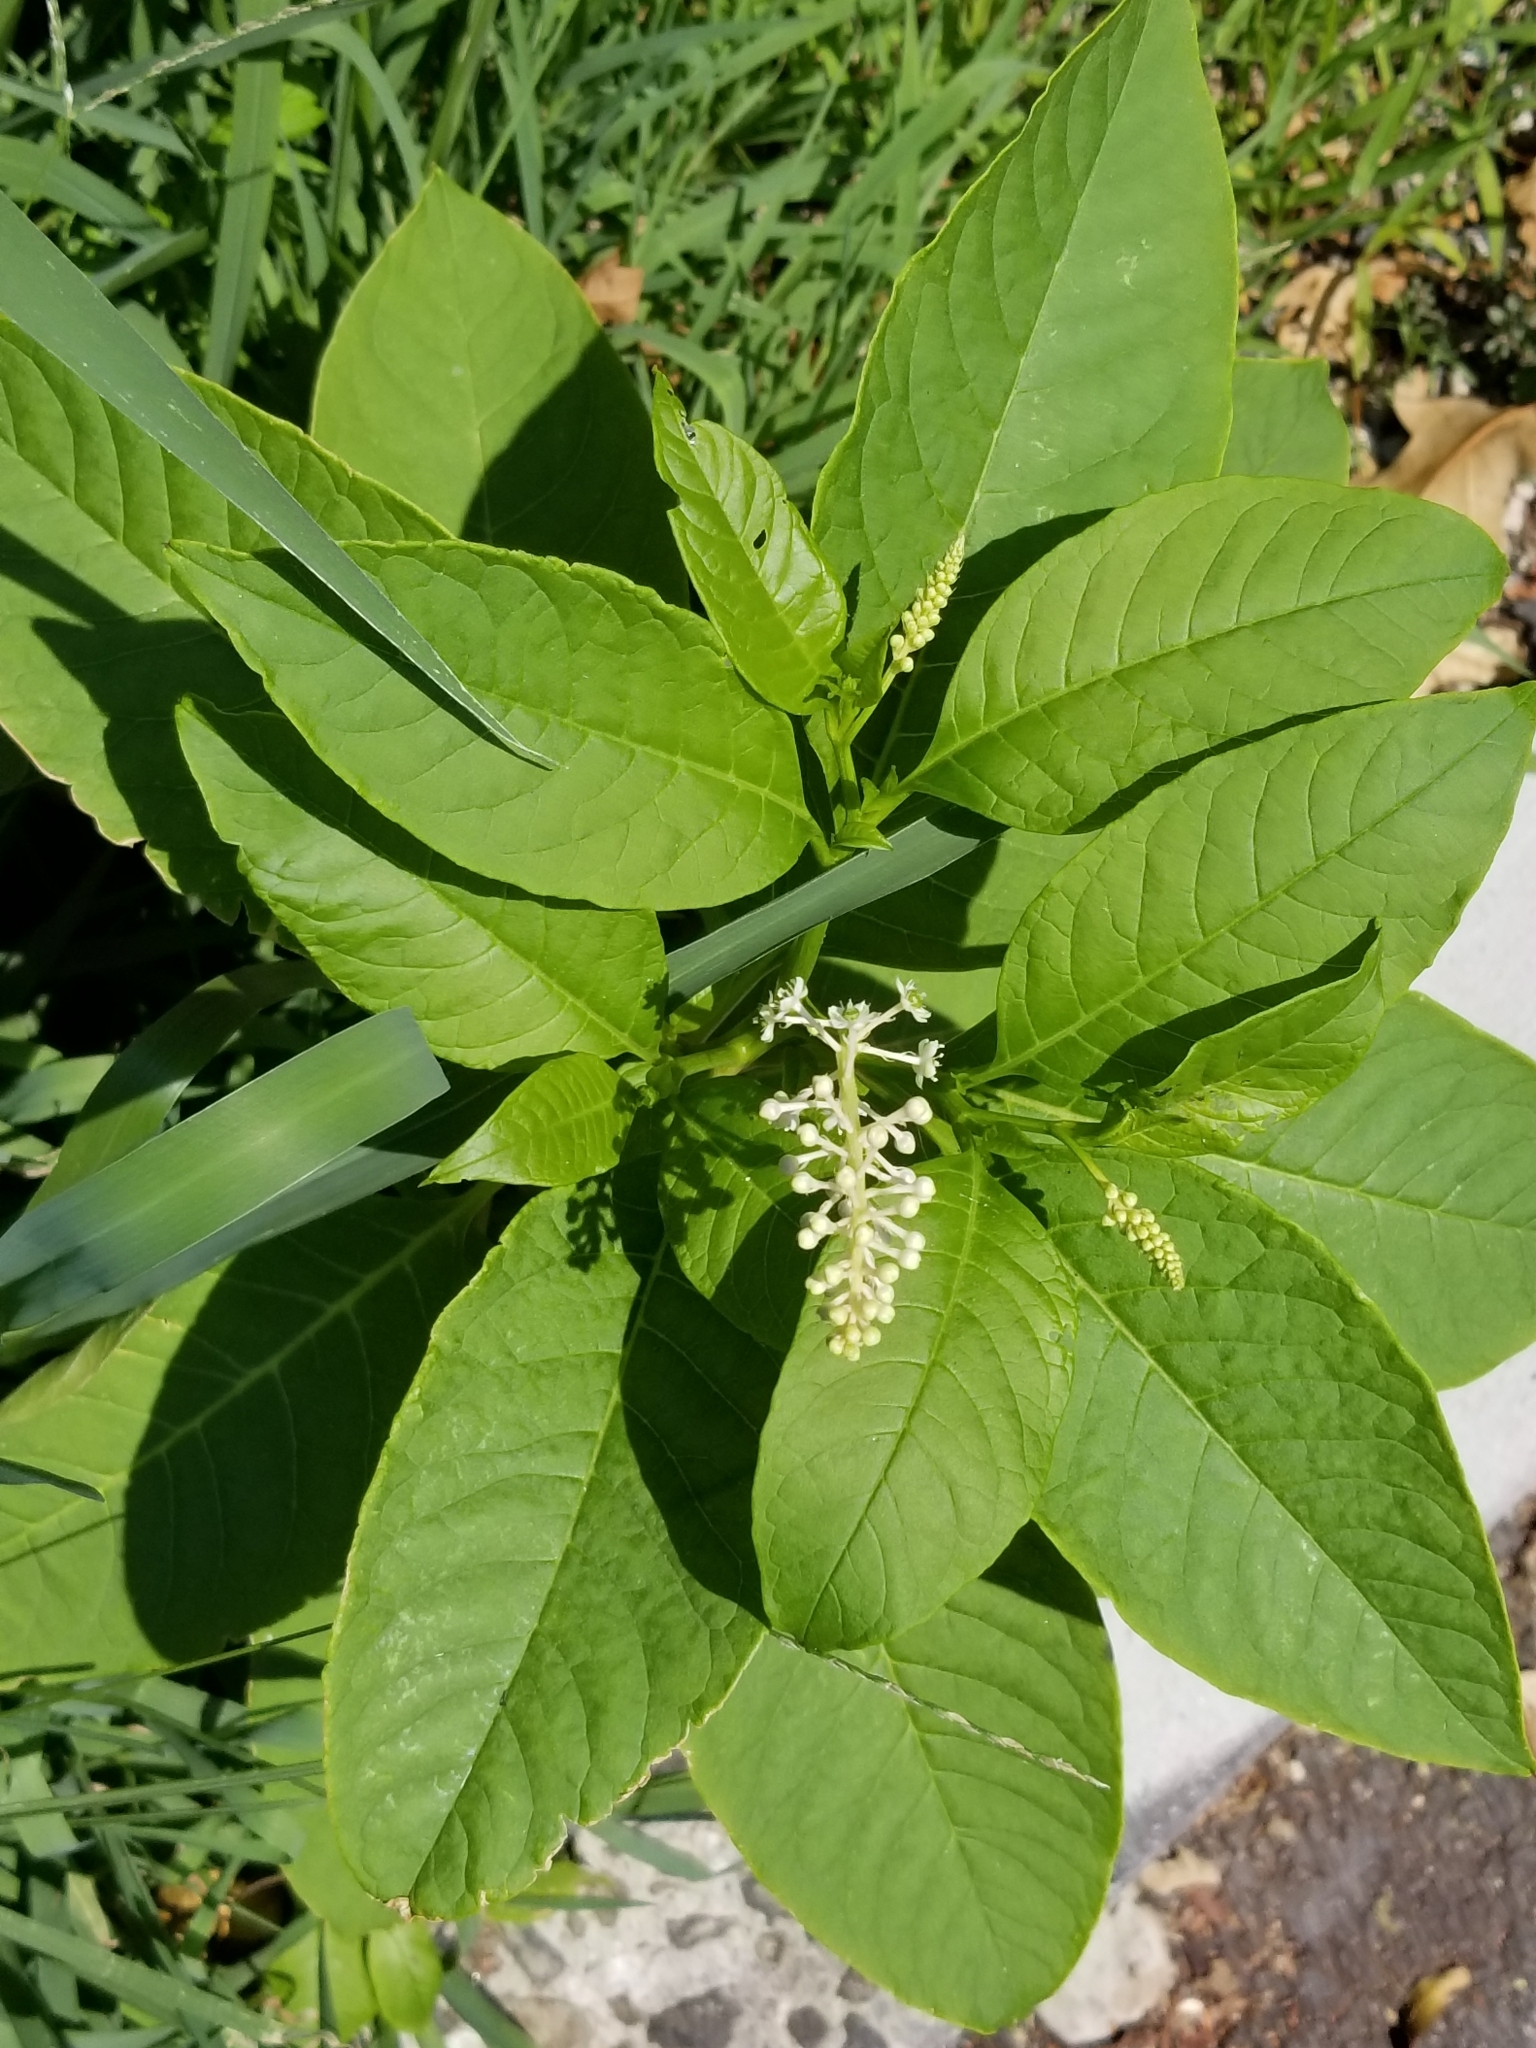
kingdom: Plantae
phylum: Tracheophyta
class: Magnoliopsida
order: Caryophyllales
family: Phytolaccaceae
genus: Phytolacca
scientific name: Phytolacca americana
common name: American pokeweed
